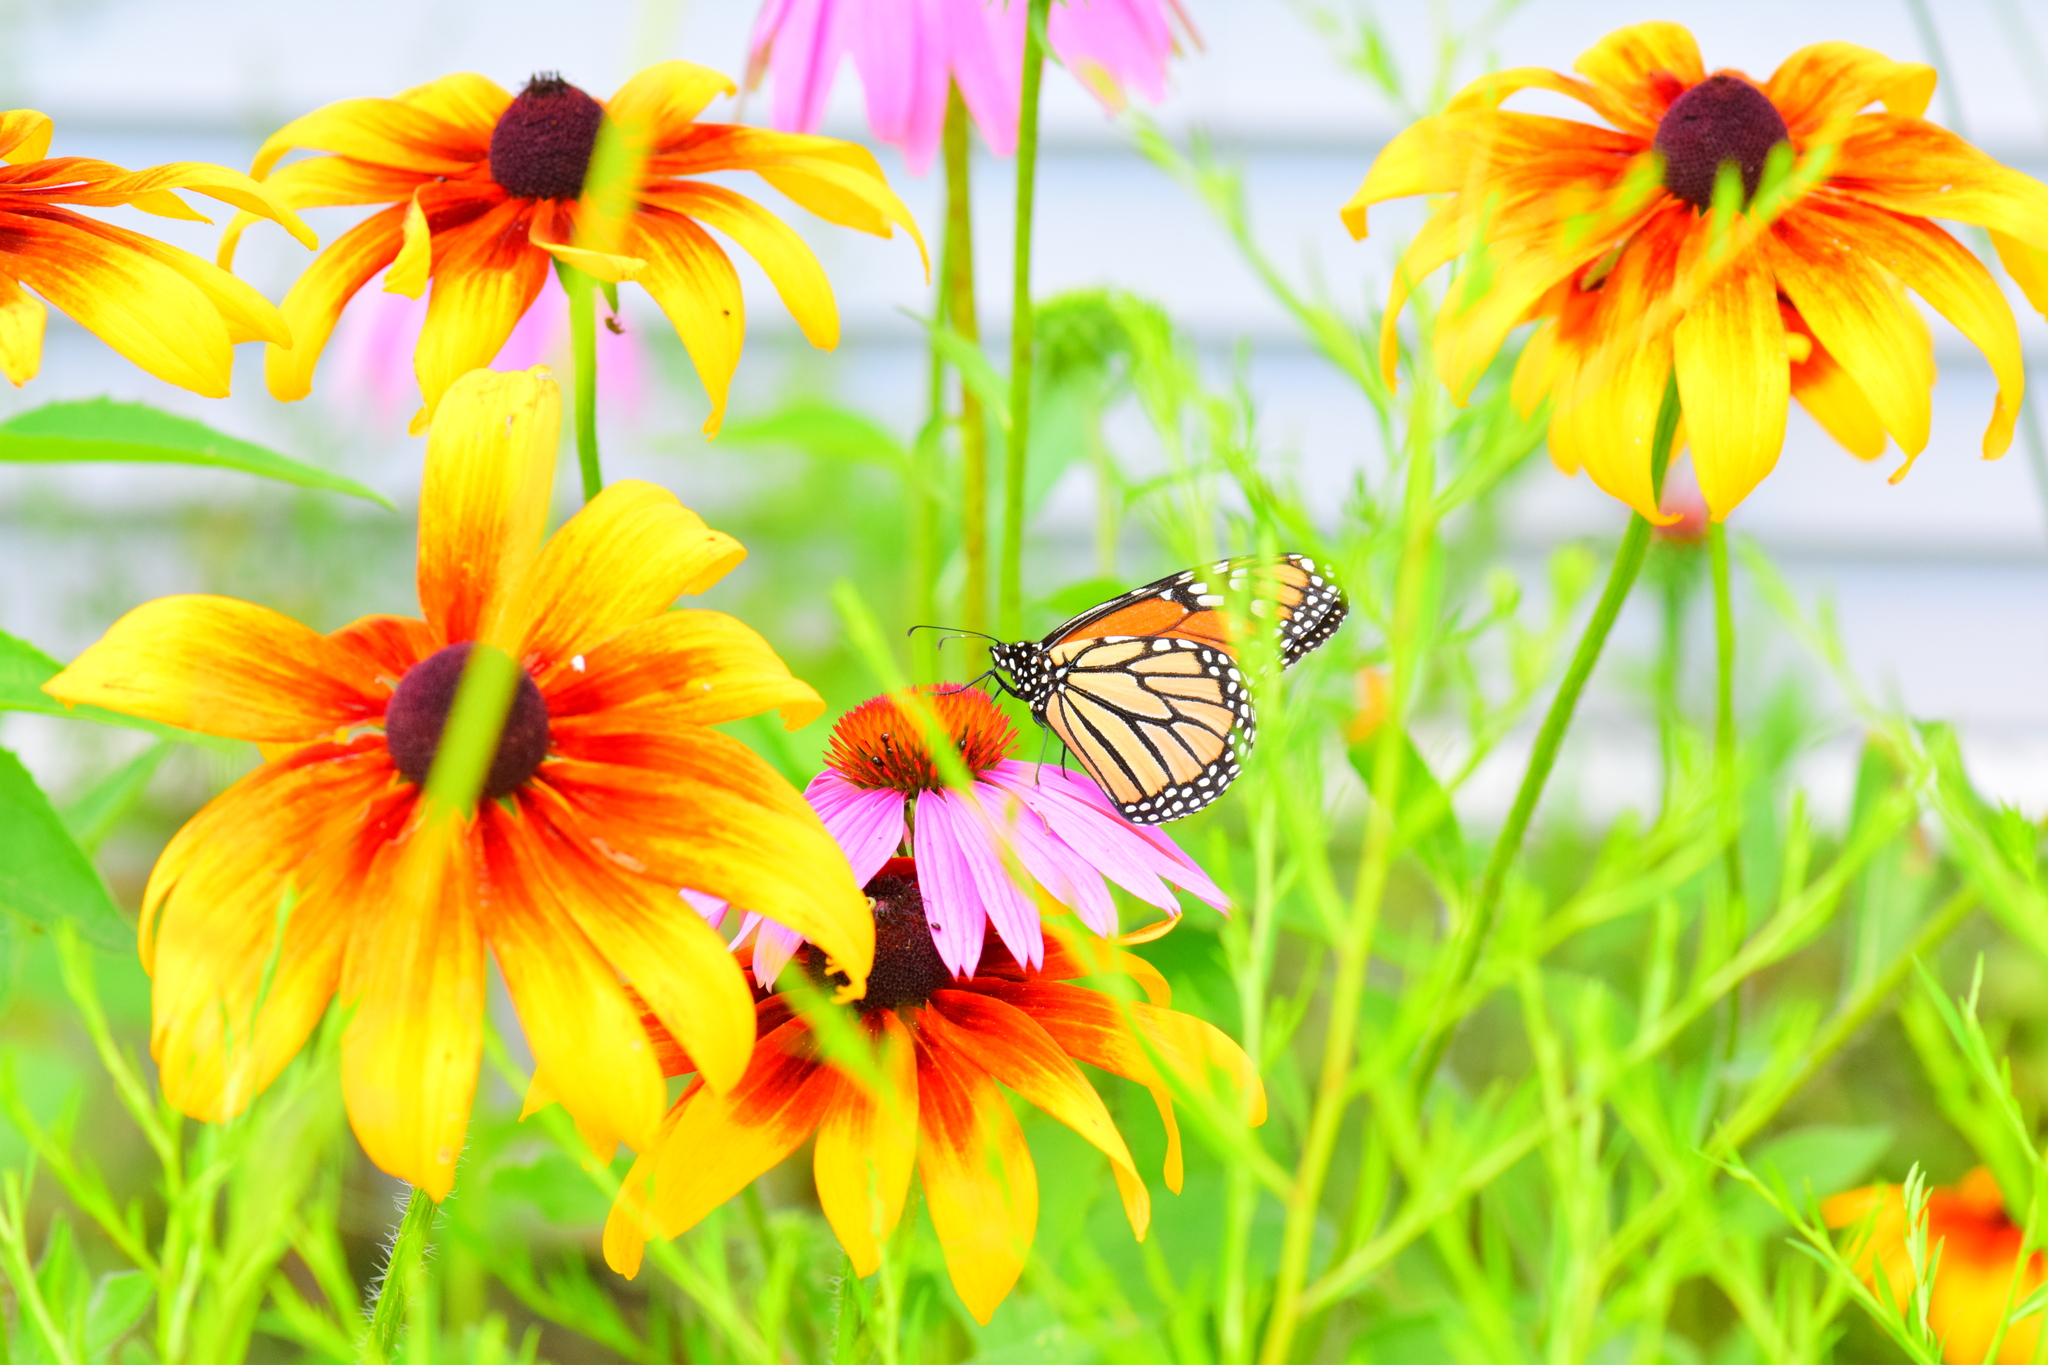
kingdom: Animalia
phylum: Arthropoda
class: Insecta
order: Lepidoptera
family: Nymphalidae
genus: Danaus
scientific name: Danaus plexippus
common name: Monarch
